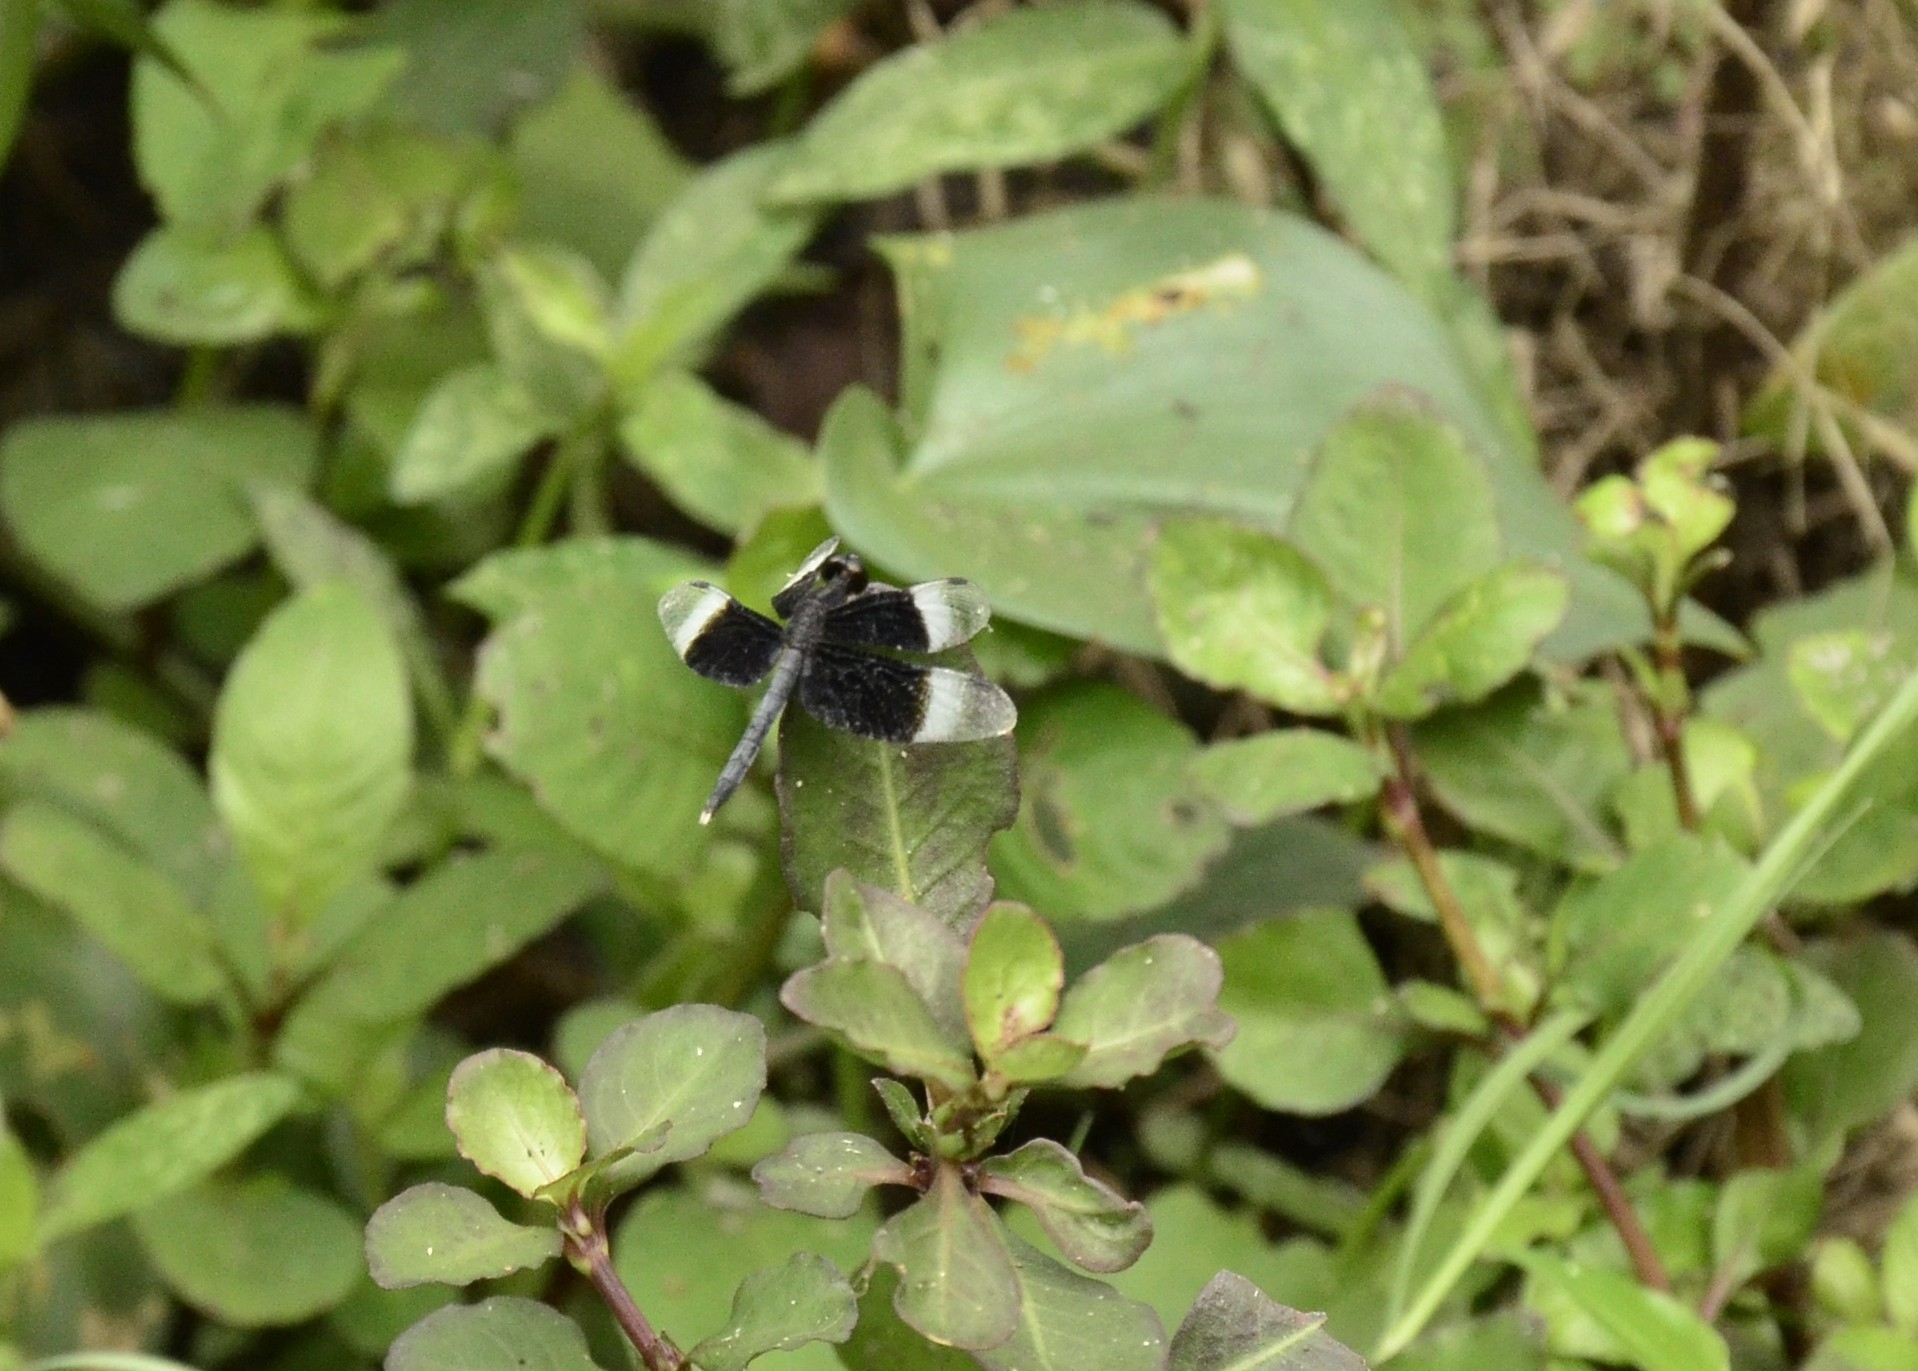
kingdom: Animalia
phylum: Arthropoda
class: Insecta
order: Odonata
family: Libellulidae
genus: Neurothemis
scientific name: Neurothemis tullia
